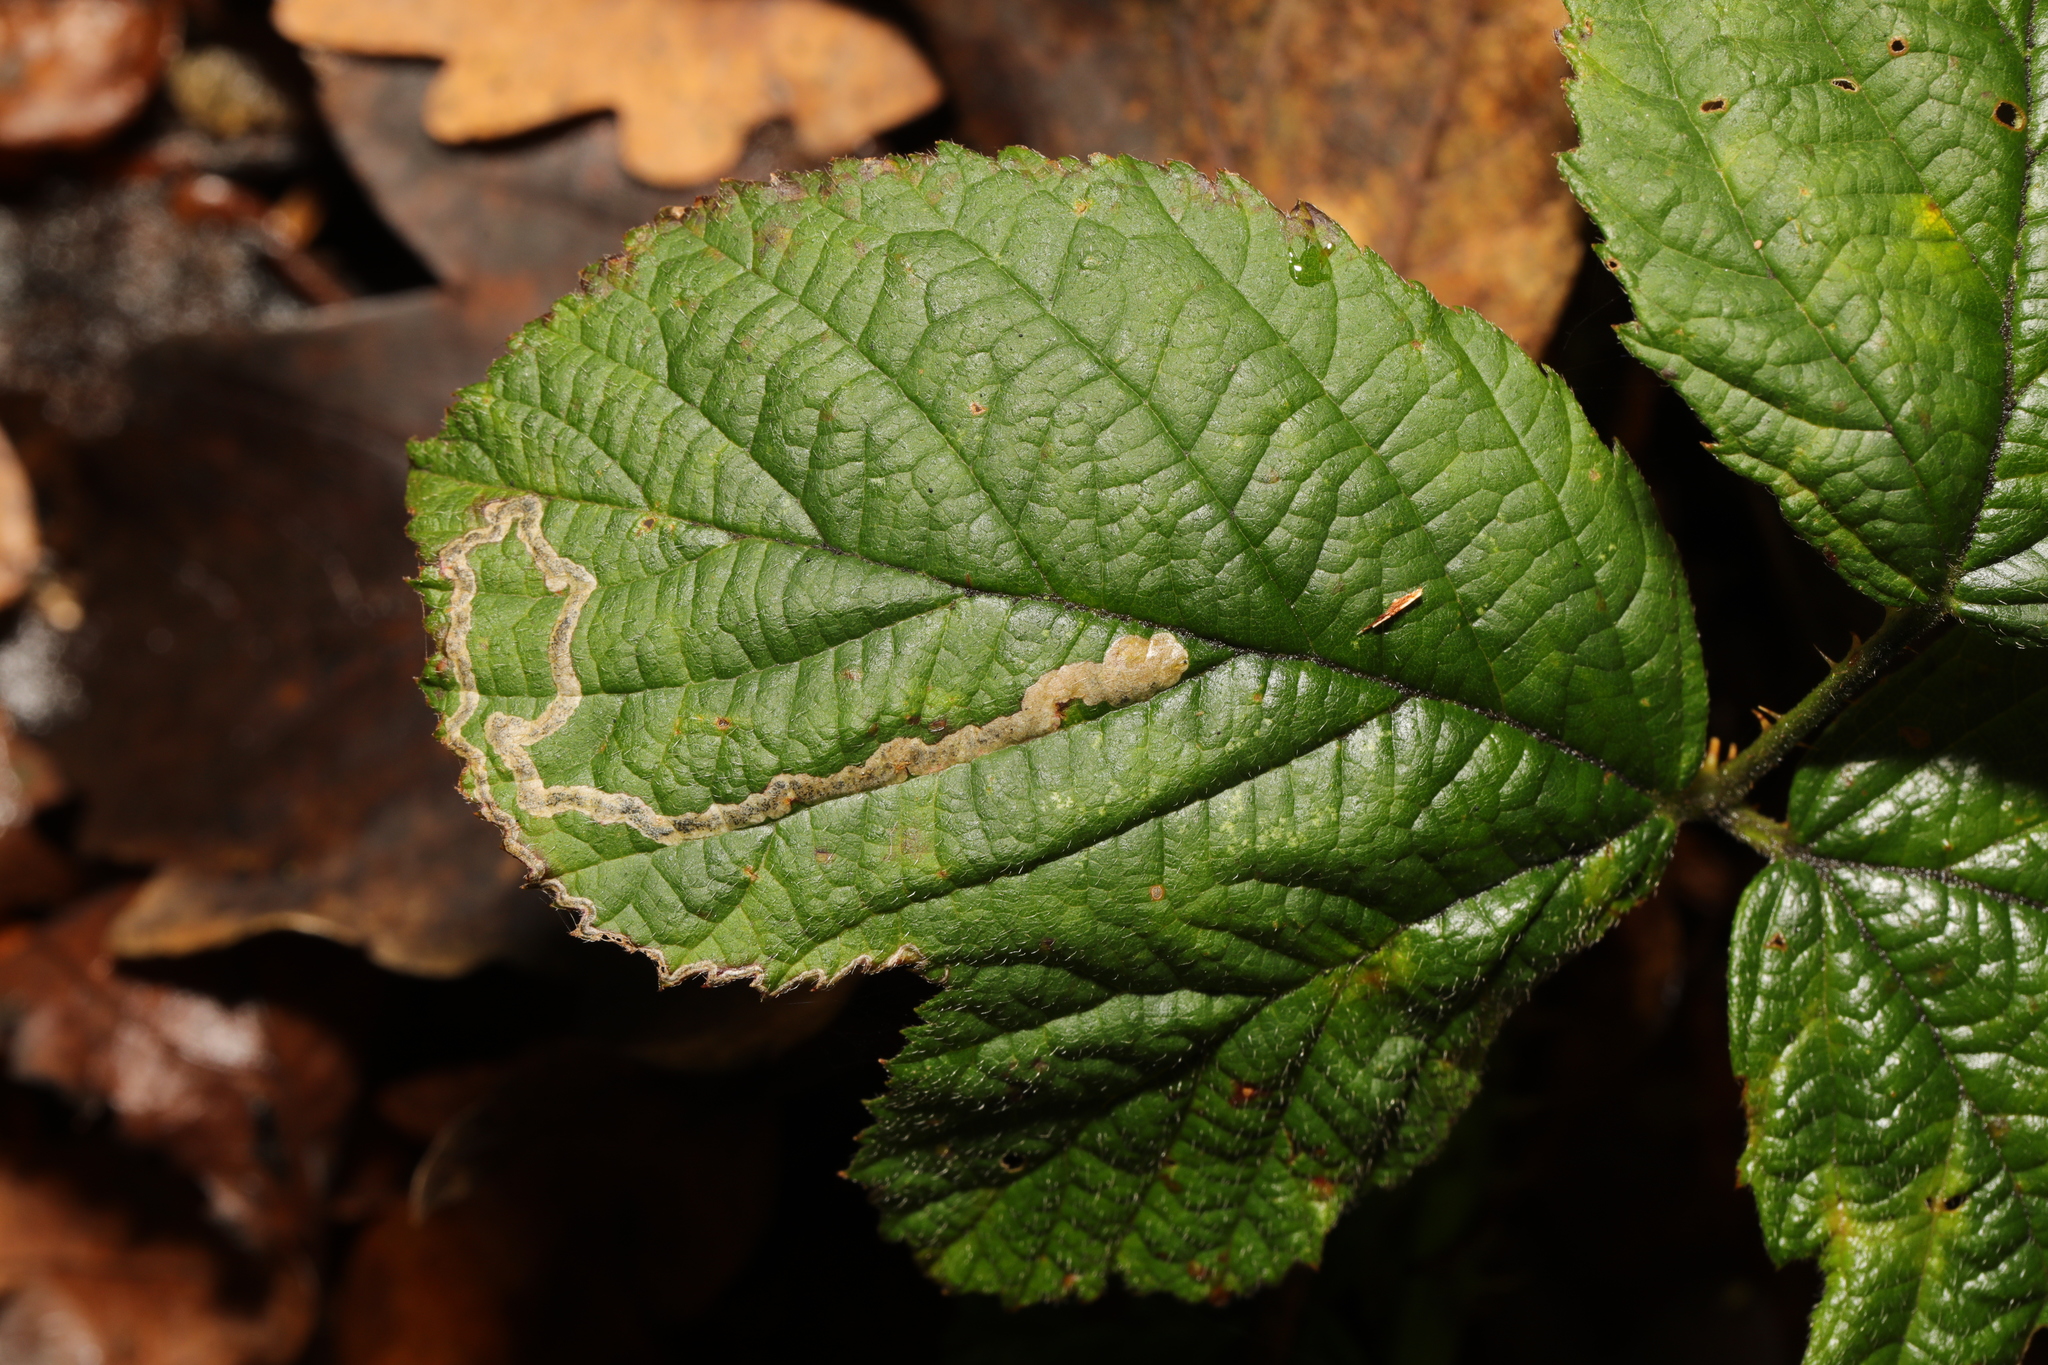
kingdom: Animalia
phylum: Arthropoda
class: Insecta
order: Lepidoptera
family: Nepticulidae
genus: Stigmella
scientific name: Stigmella aurella
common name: Golden pigmy
